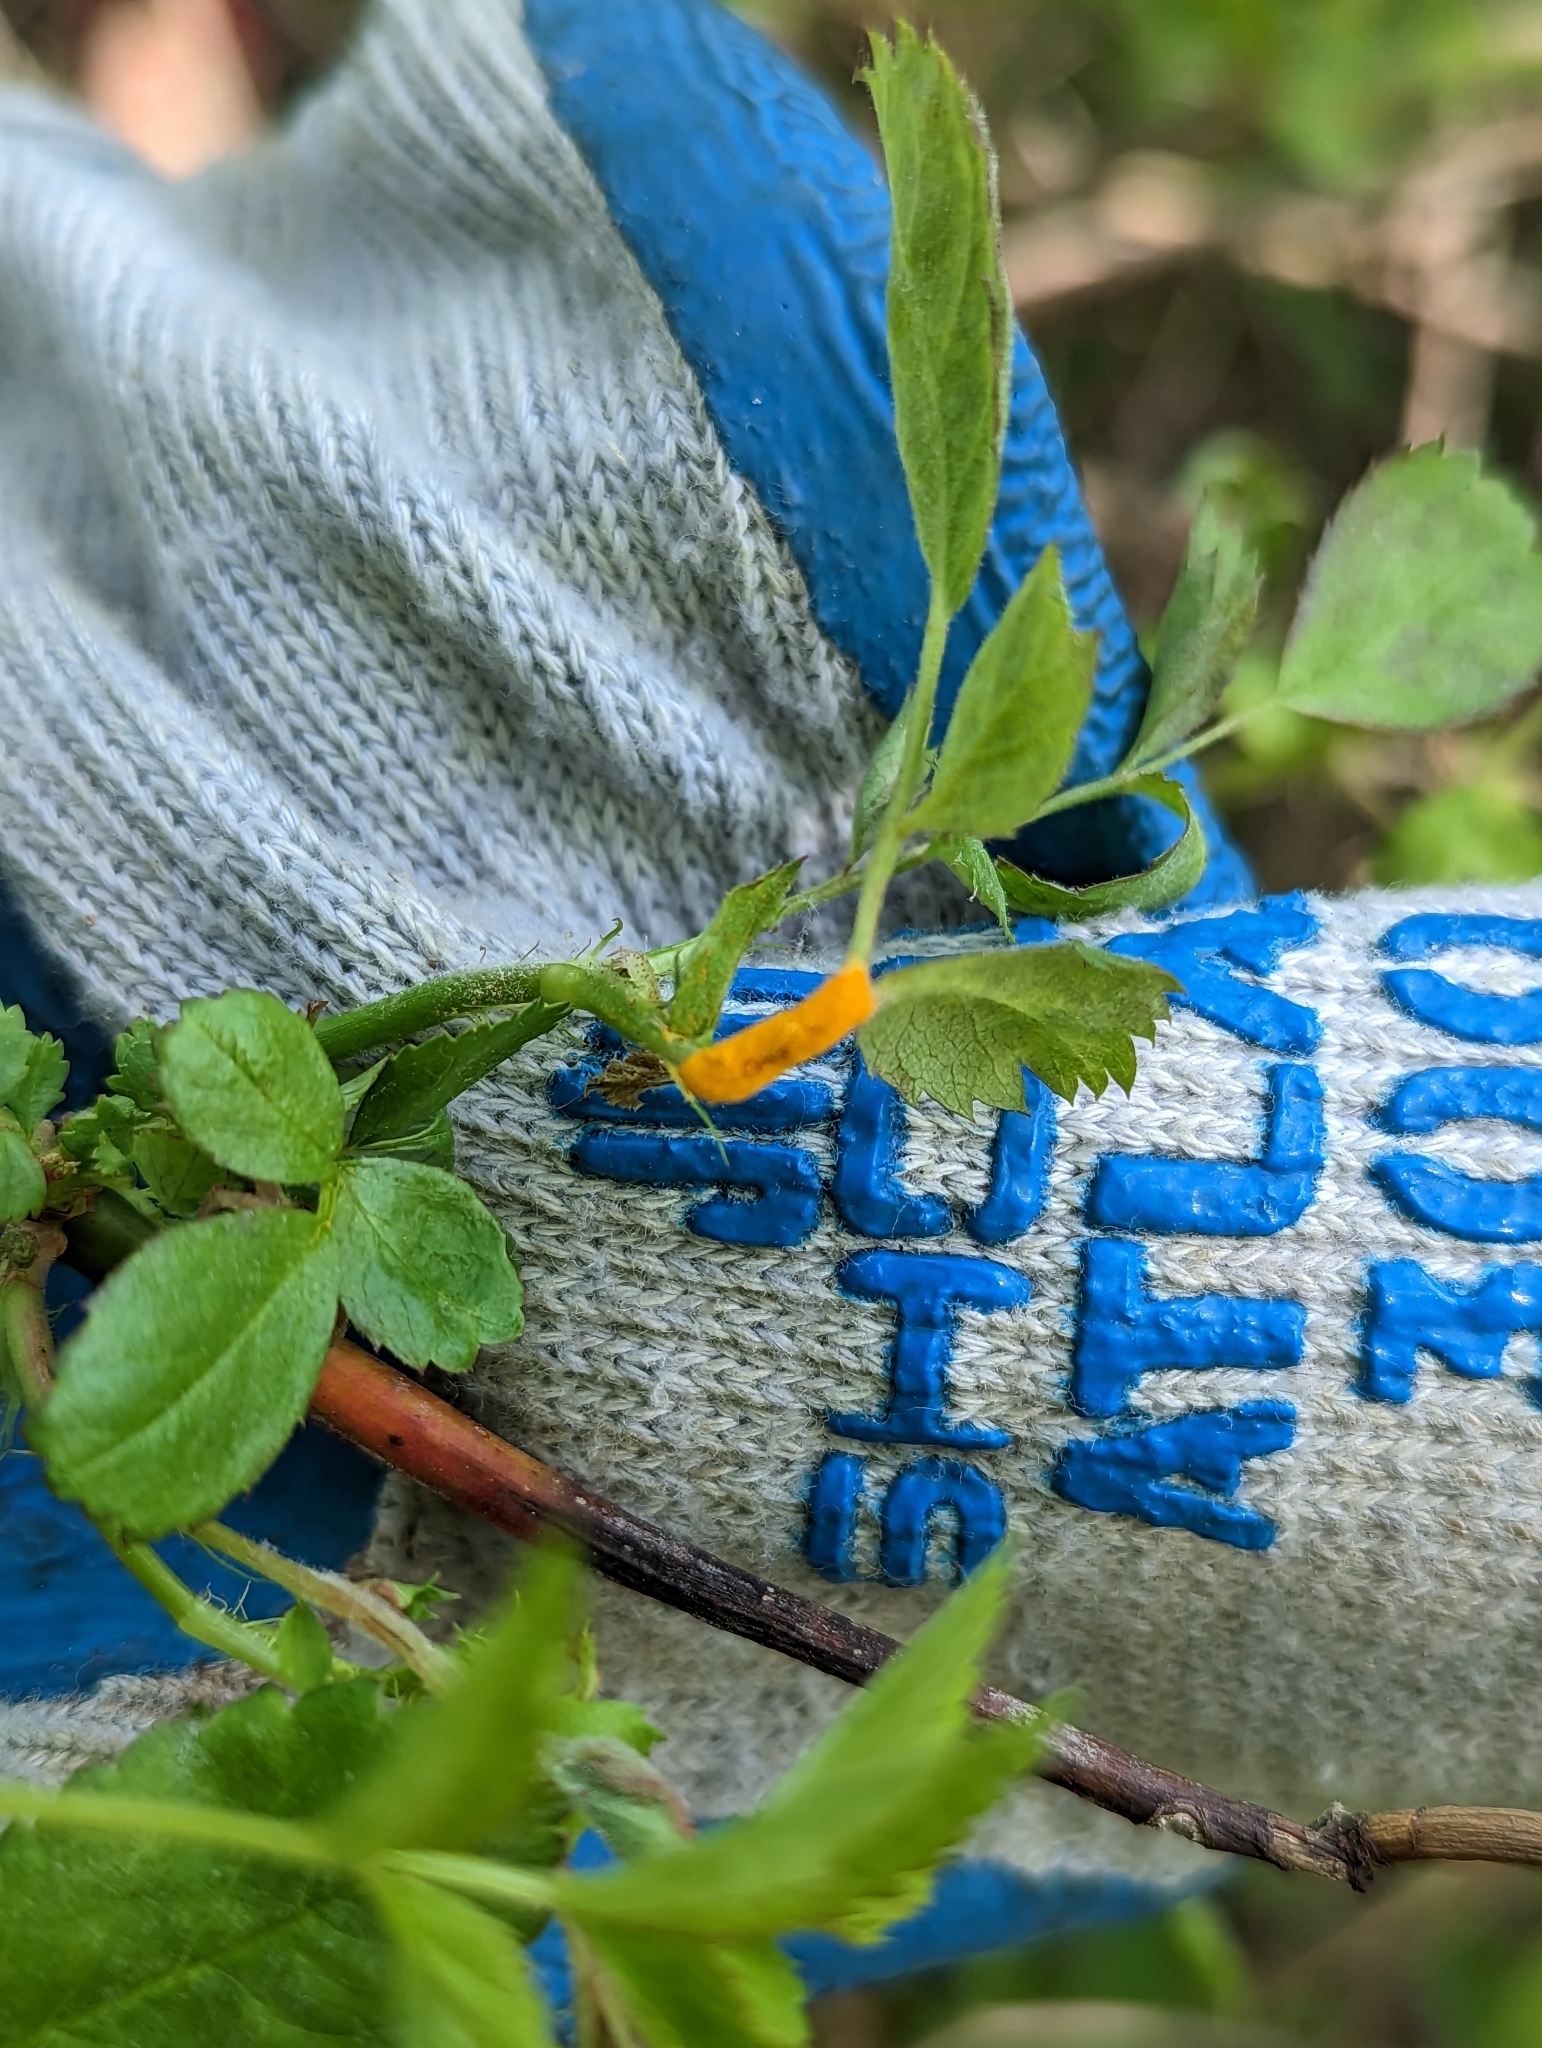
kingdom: Fungi
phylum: Basidiomycota
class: Pucciniomycetes
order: Pucciniales
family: Phragmidiaceae
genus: Phragmidium
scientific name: Phragmidium rosae-multiflorae
